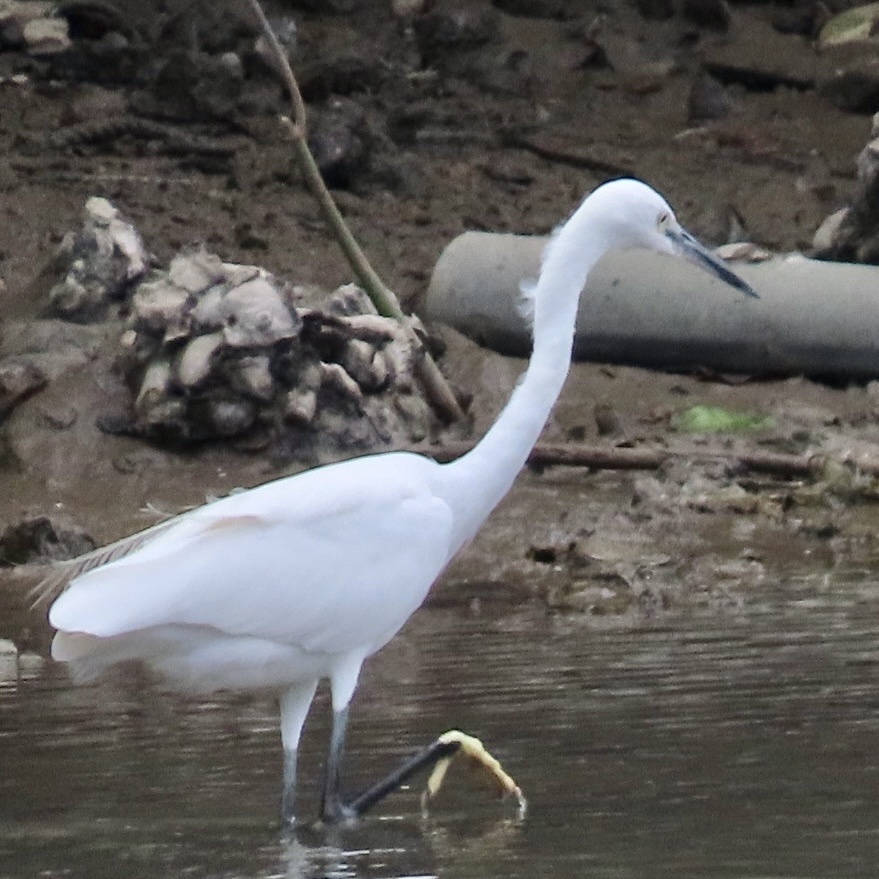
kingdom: Animalia
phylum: Chordata
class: Aves
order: Pelecaniformes
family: Ardeidae
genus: Egretta
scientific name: Egretta garzetta
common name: Little egret
